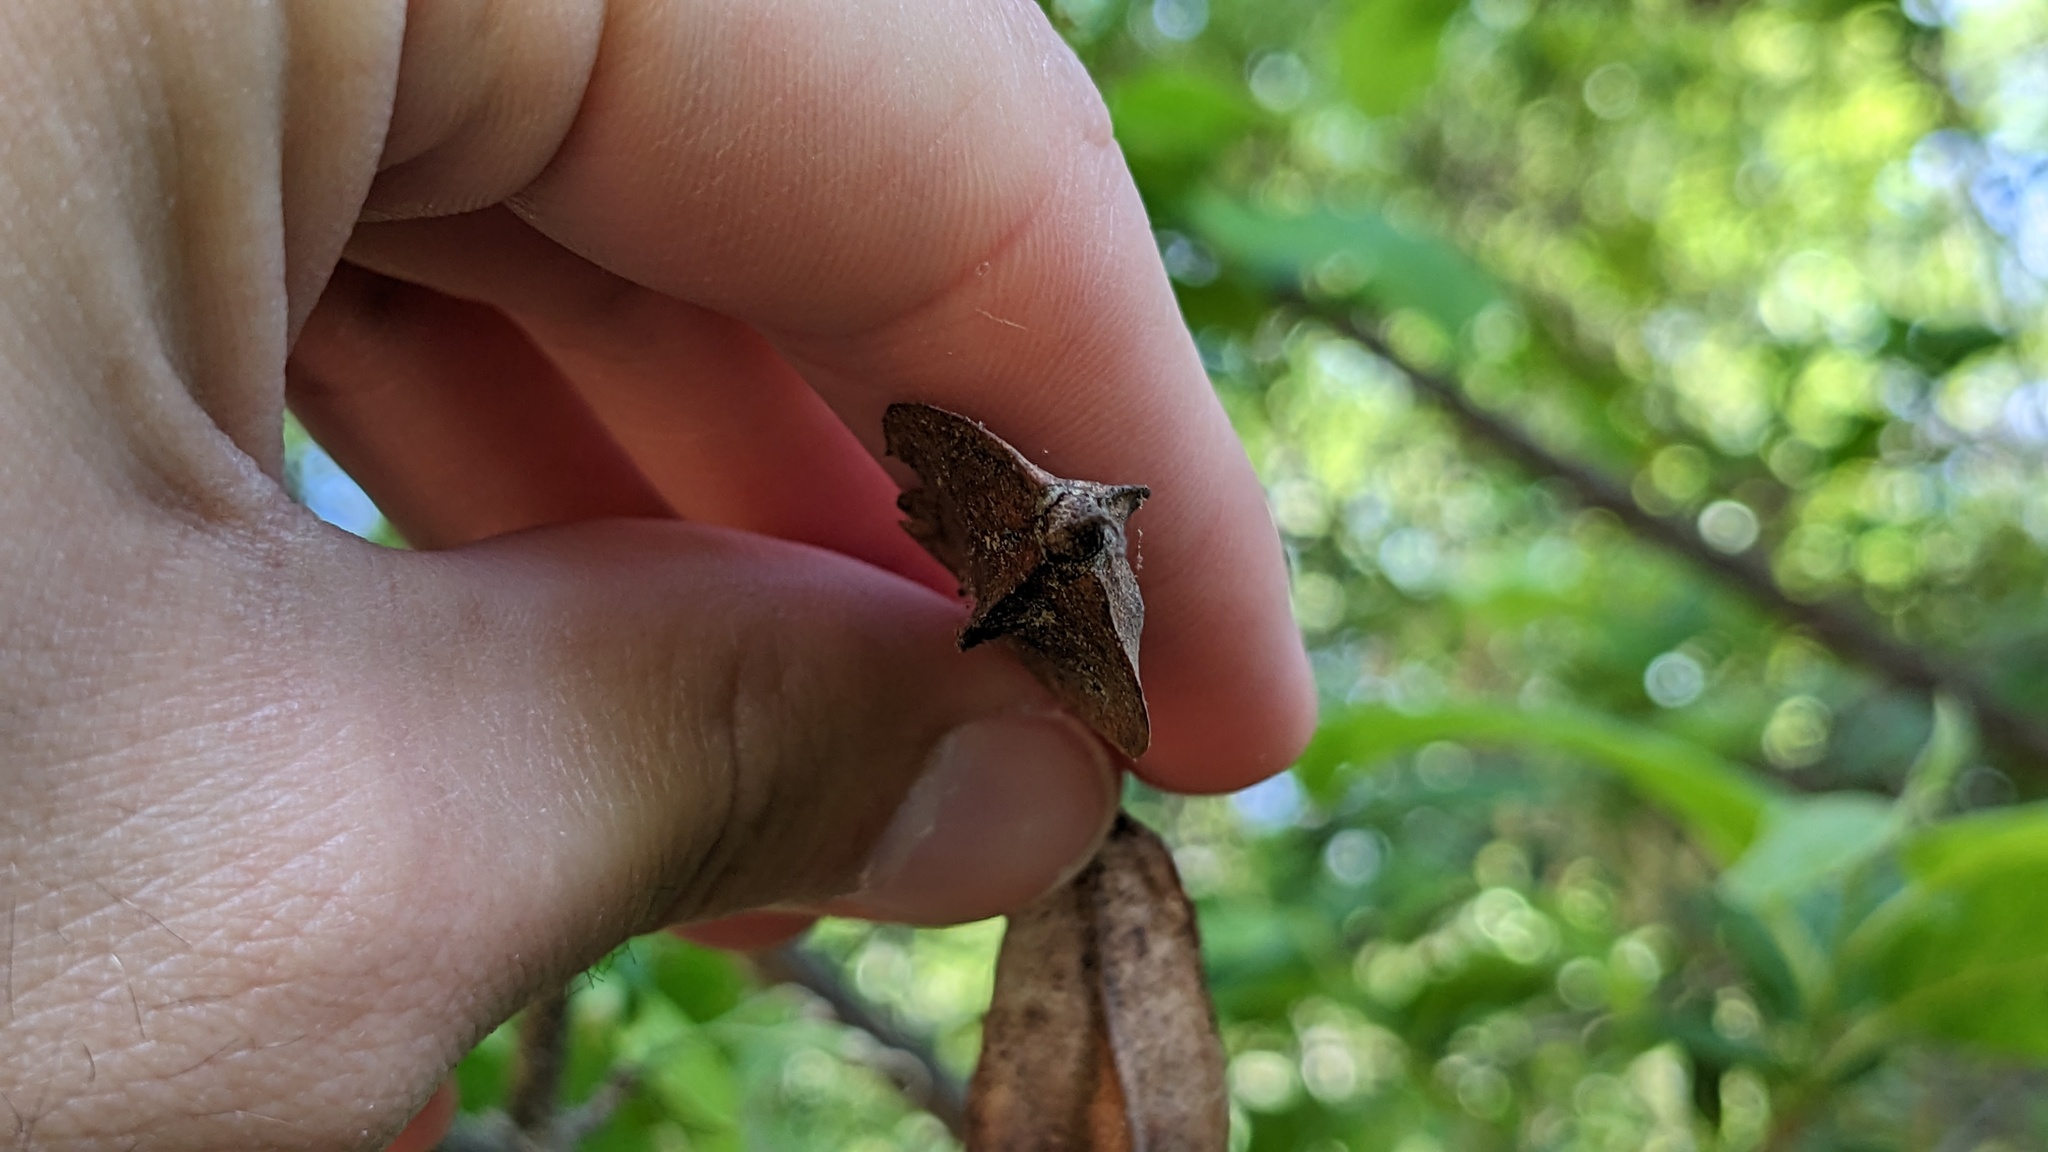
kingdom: Plantae
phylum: Tracheophyta
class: Magnoliopsida
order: Ericales
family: Styracaceae
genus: Halesia
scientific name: Halesia diptera
